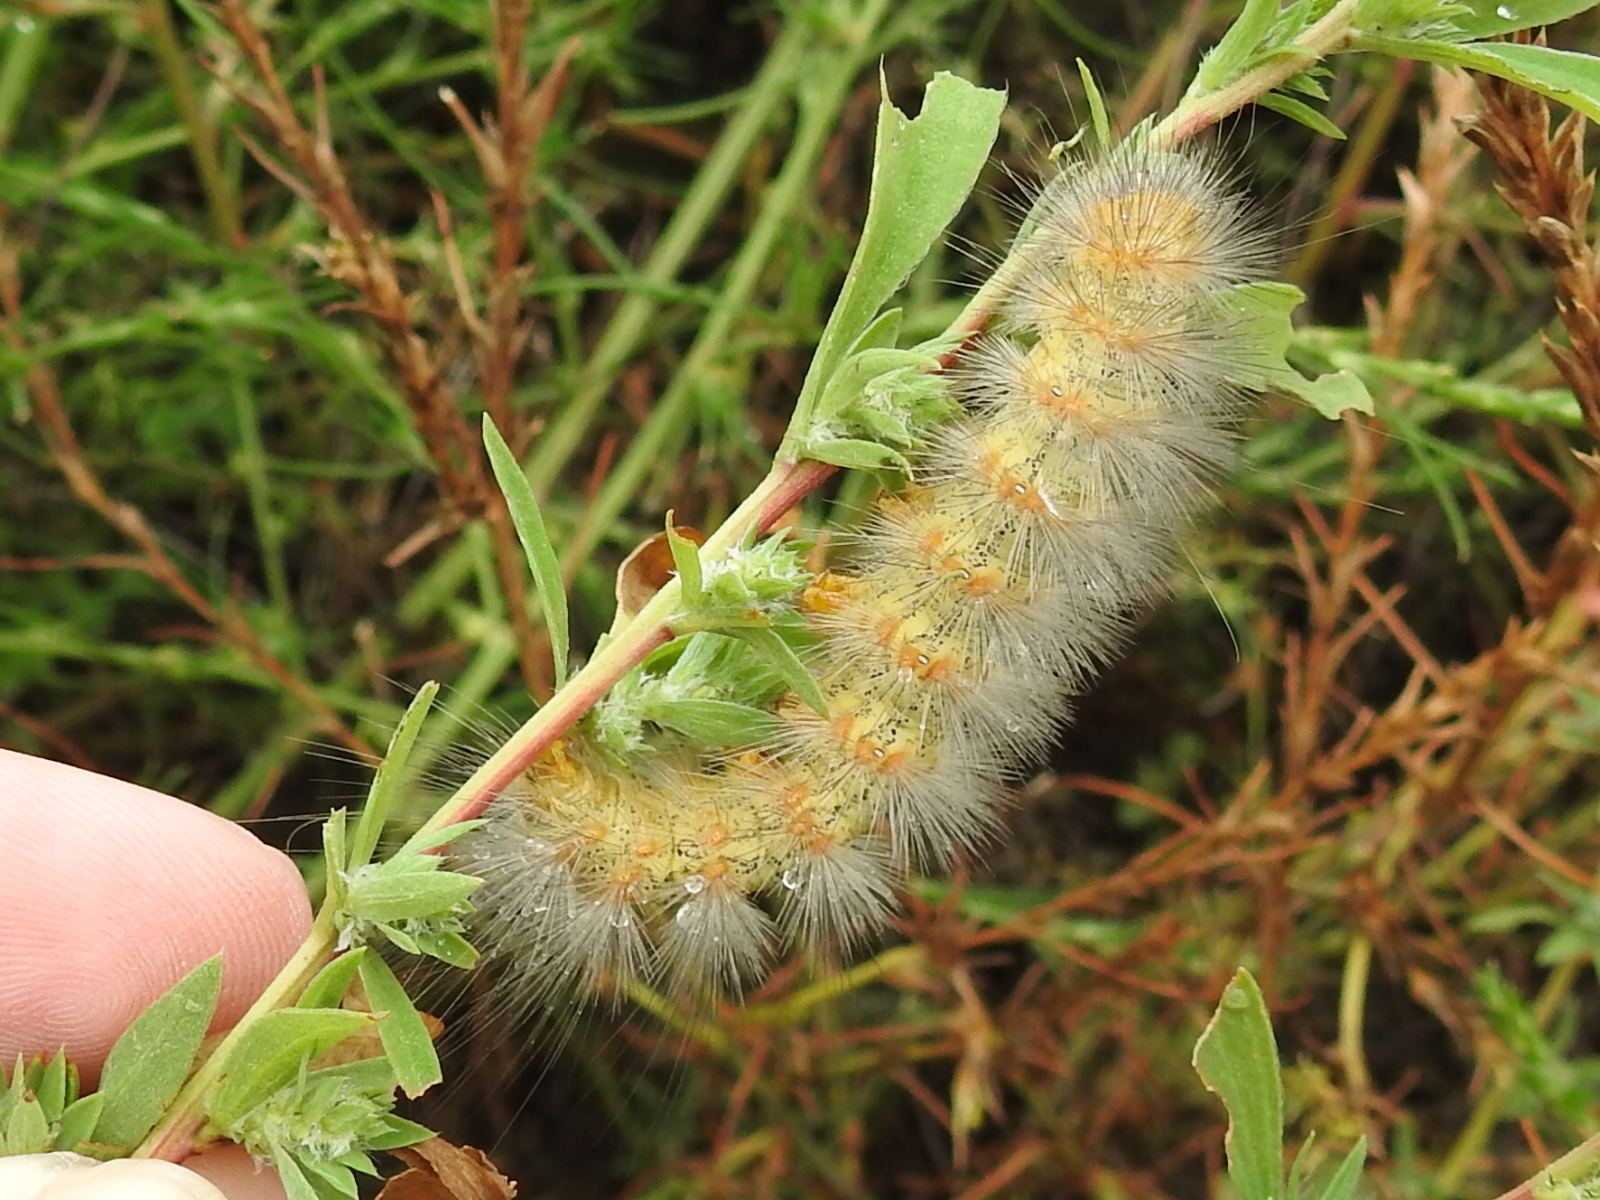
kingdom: Animalia
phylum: Arthropoda
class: Insecta
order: Lepidoptera
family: Erebidae
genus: Estigmene
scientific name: Estigmene acrea
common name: Salt marsh moth
